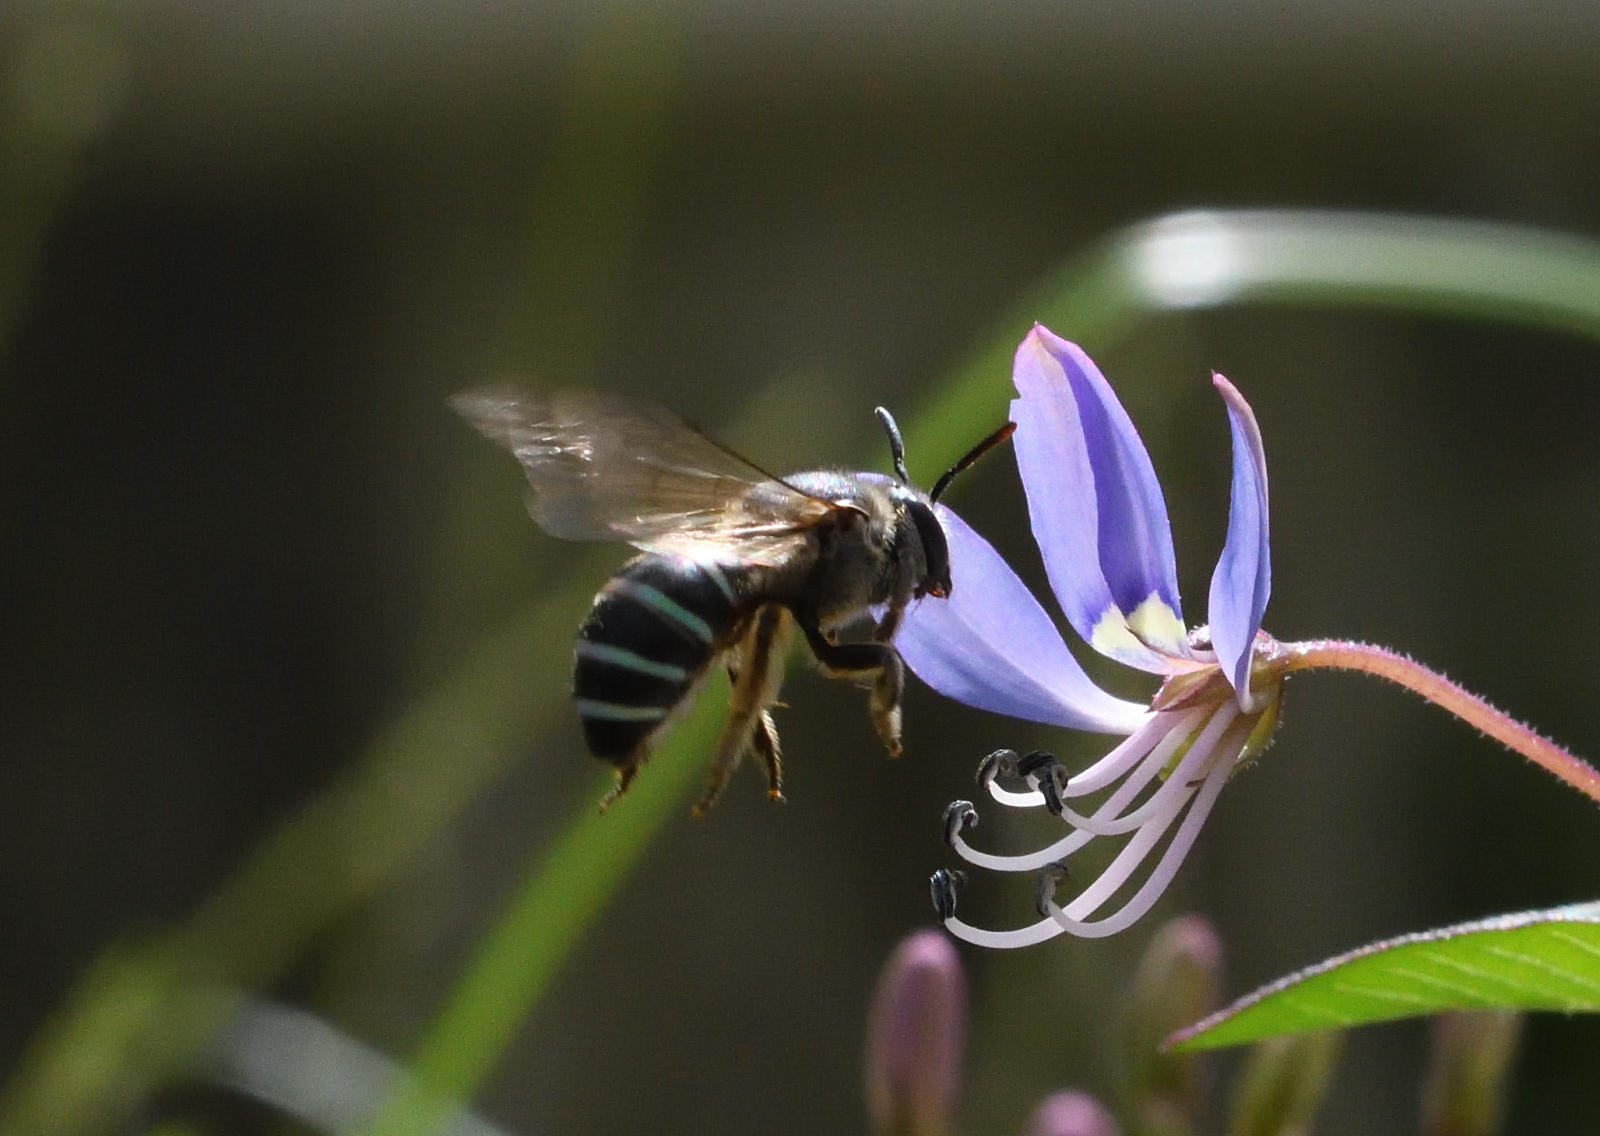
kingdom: Animalia
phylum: Arthropoda
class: Insecta
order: Hymenoptera
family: Halictidae
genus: Nomia
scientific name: Nomia westwoodi
